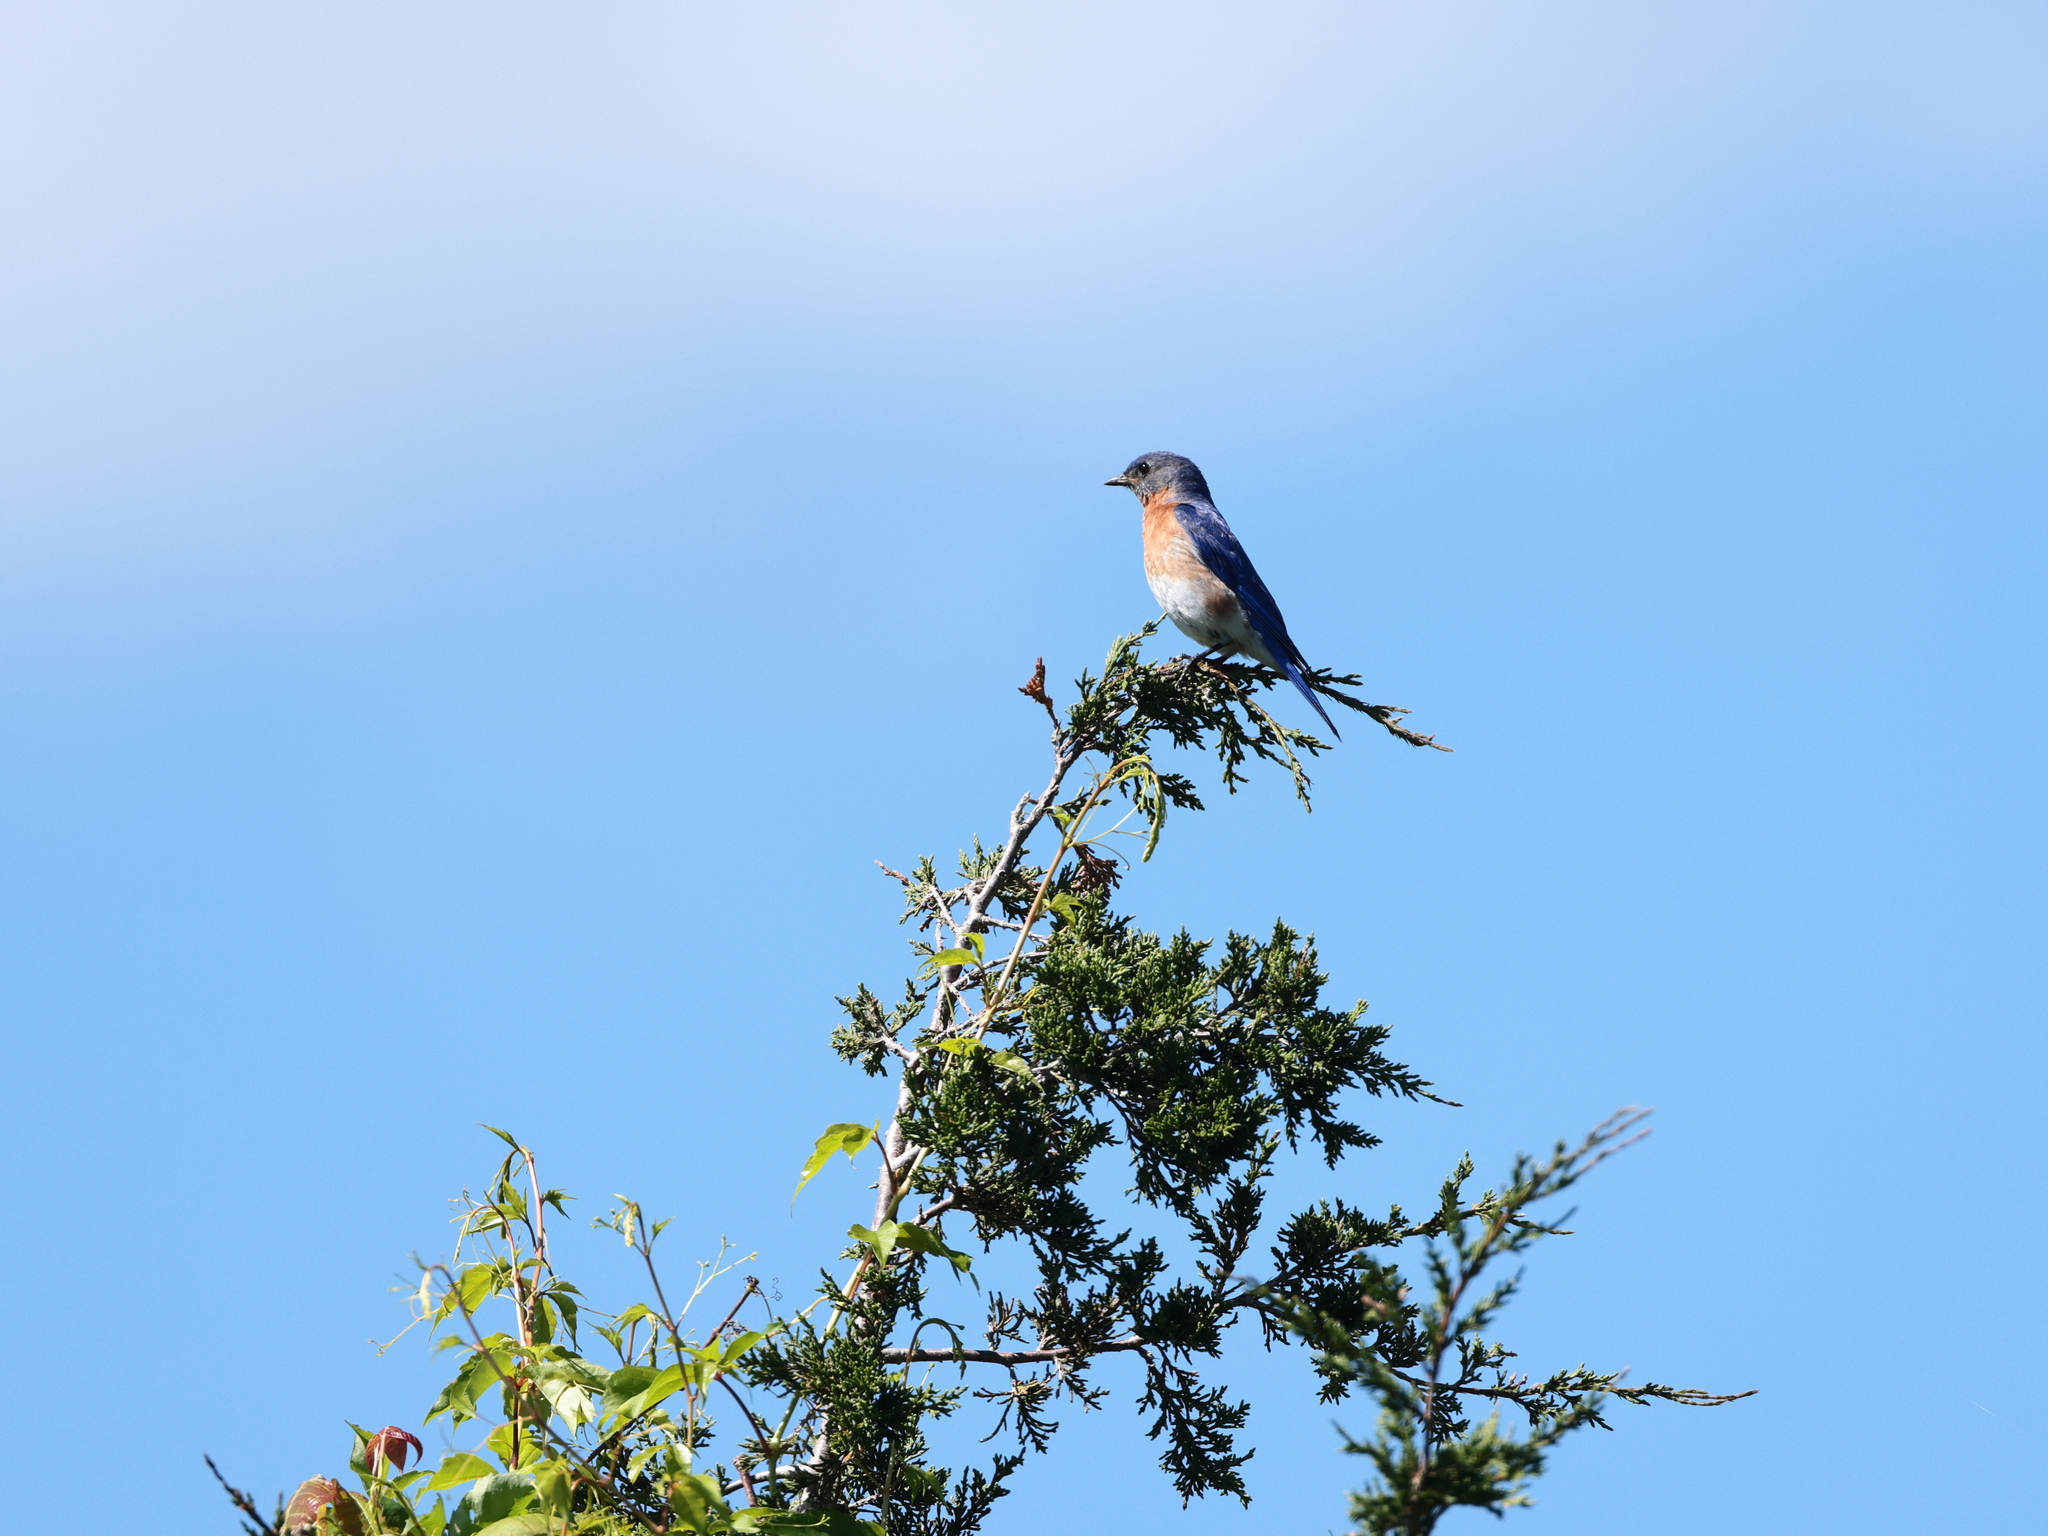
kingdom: Animalia
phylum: Chordata
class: Aves
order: Passeriformes
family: Turdidae
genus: Sialia
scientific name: Sialia sialis
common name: Eastern bluebird
